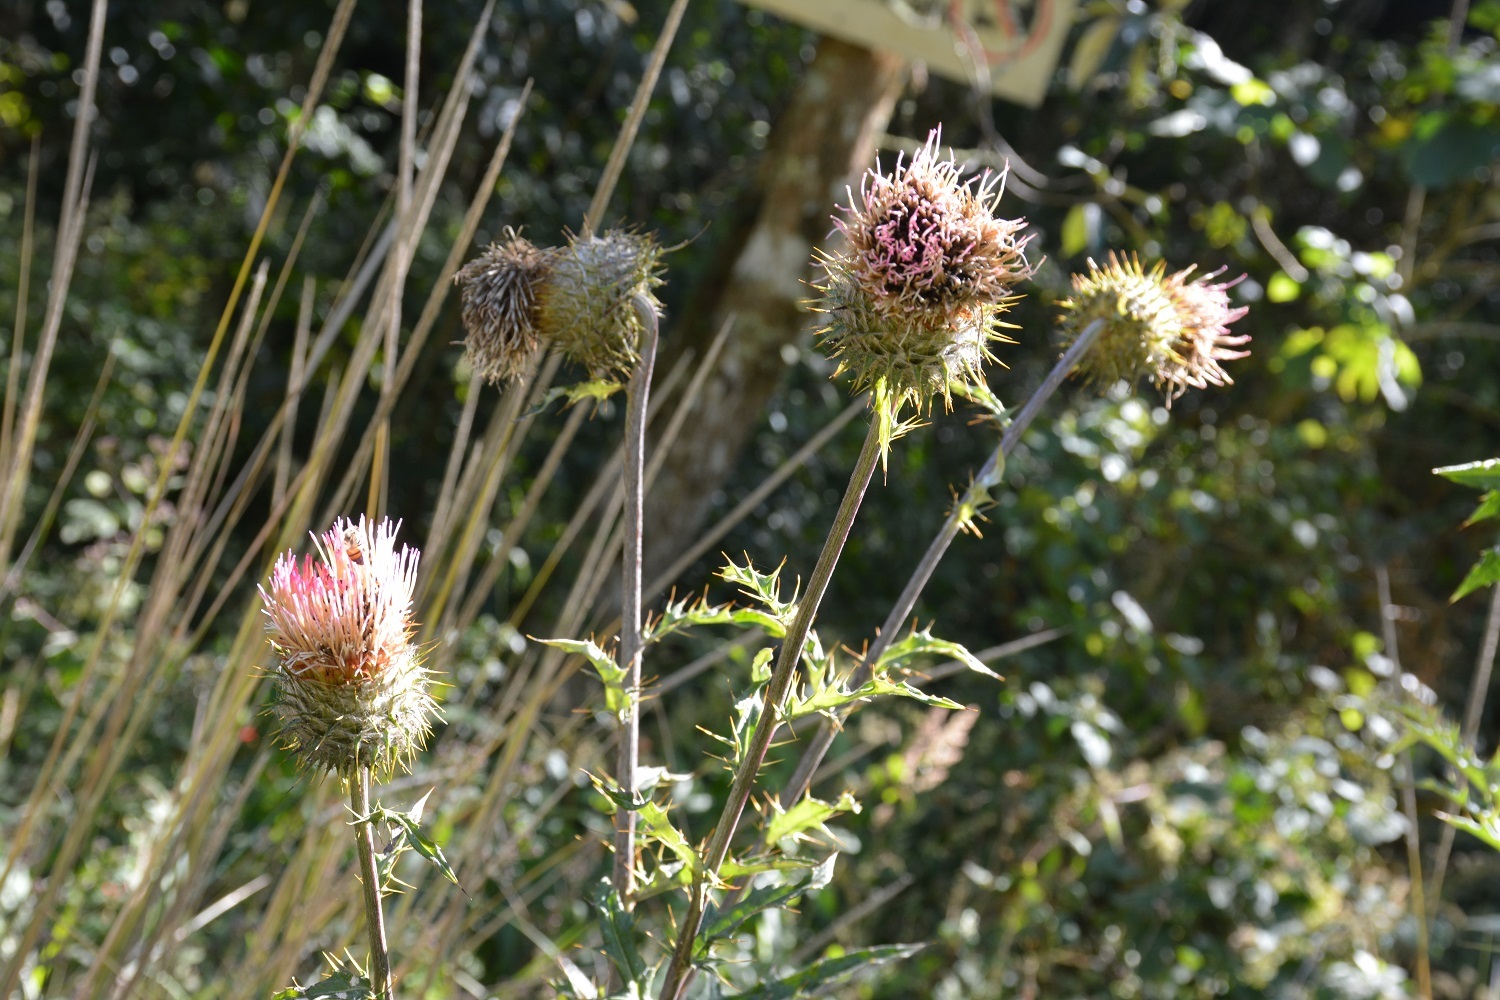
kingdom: Plantae
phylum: Tracheophyta
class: Magnoliopsida
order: Asterales
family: Asteraceae
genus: Cirsium
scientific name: Cirsium subcoriaceum
